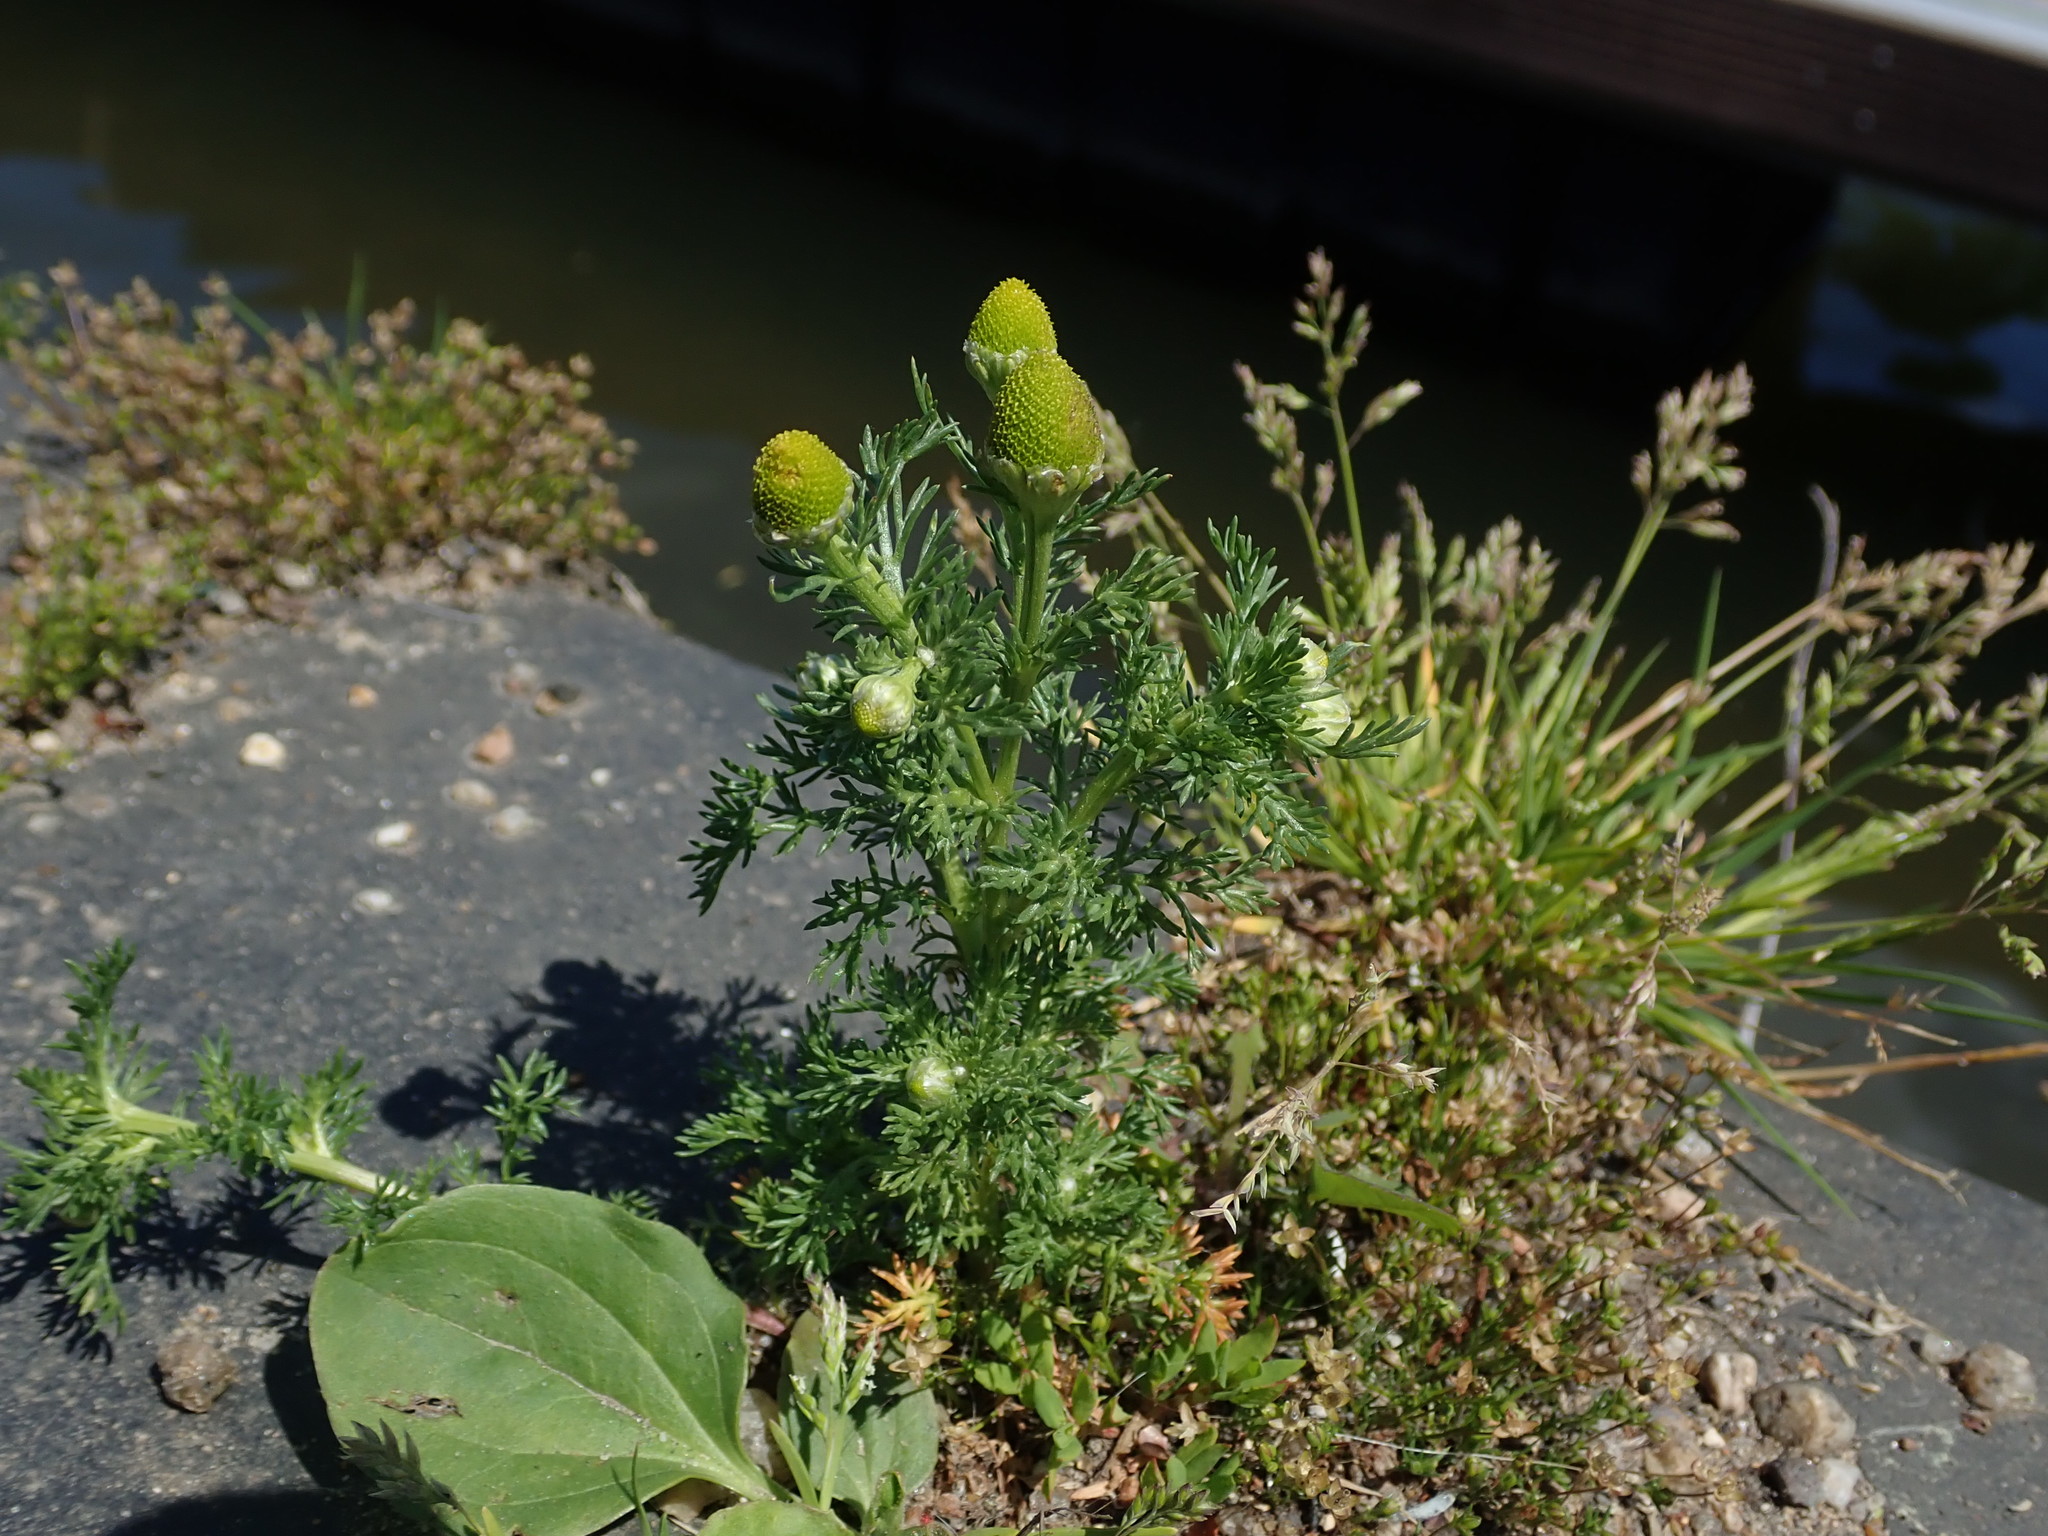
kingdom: Plantae
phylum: Tracheophyta
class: Magnoliopsida
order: Asterales
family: Asteraceae
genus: Matricaria
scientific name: Matricaria discoidea
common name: Disc mayweed
